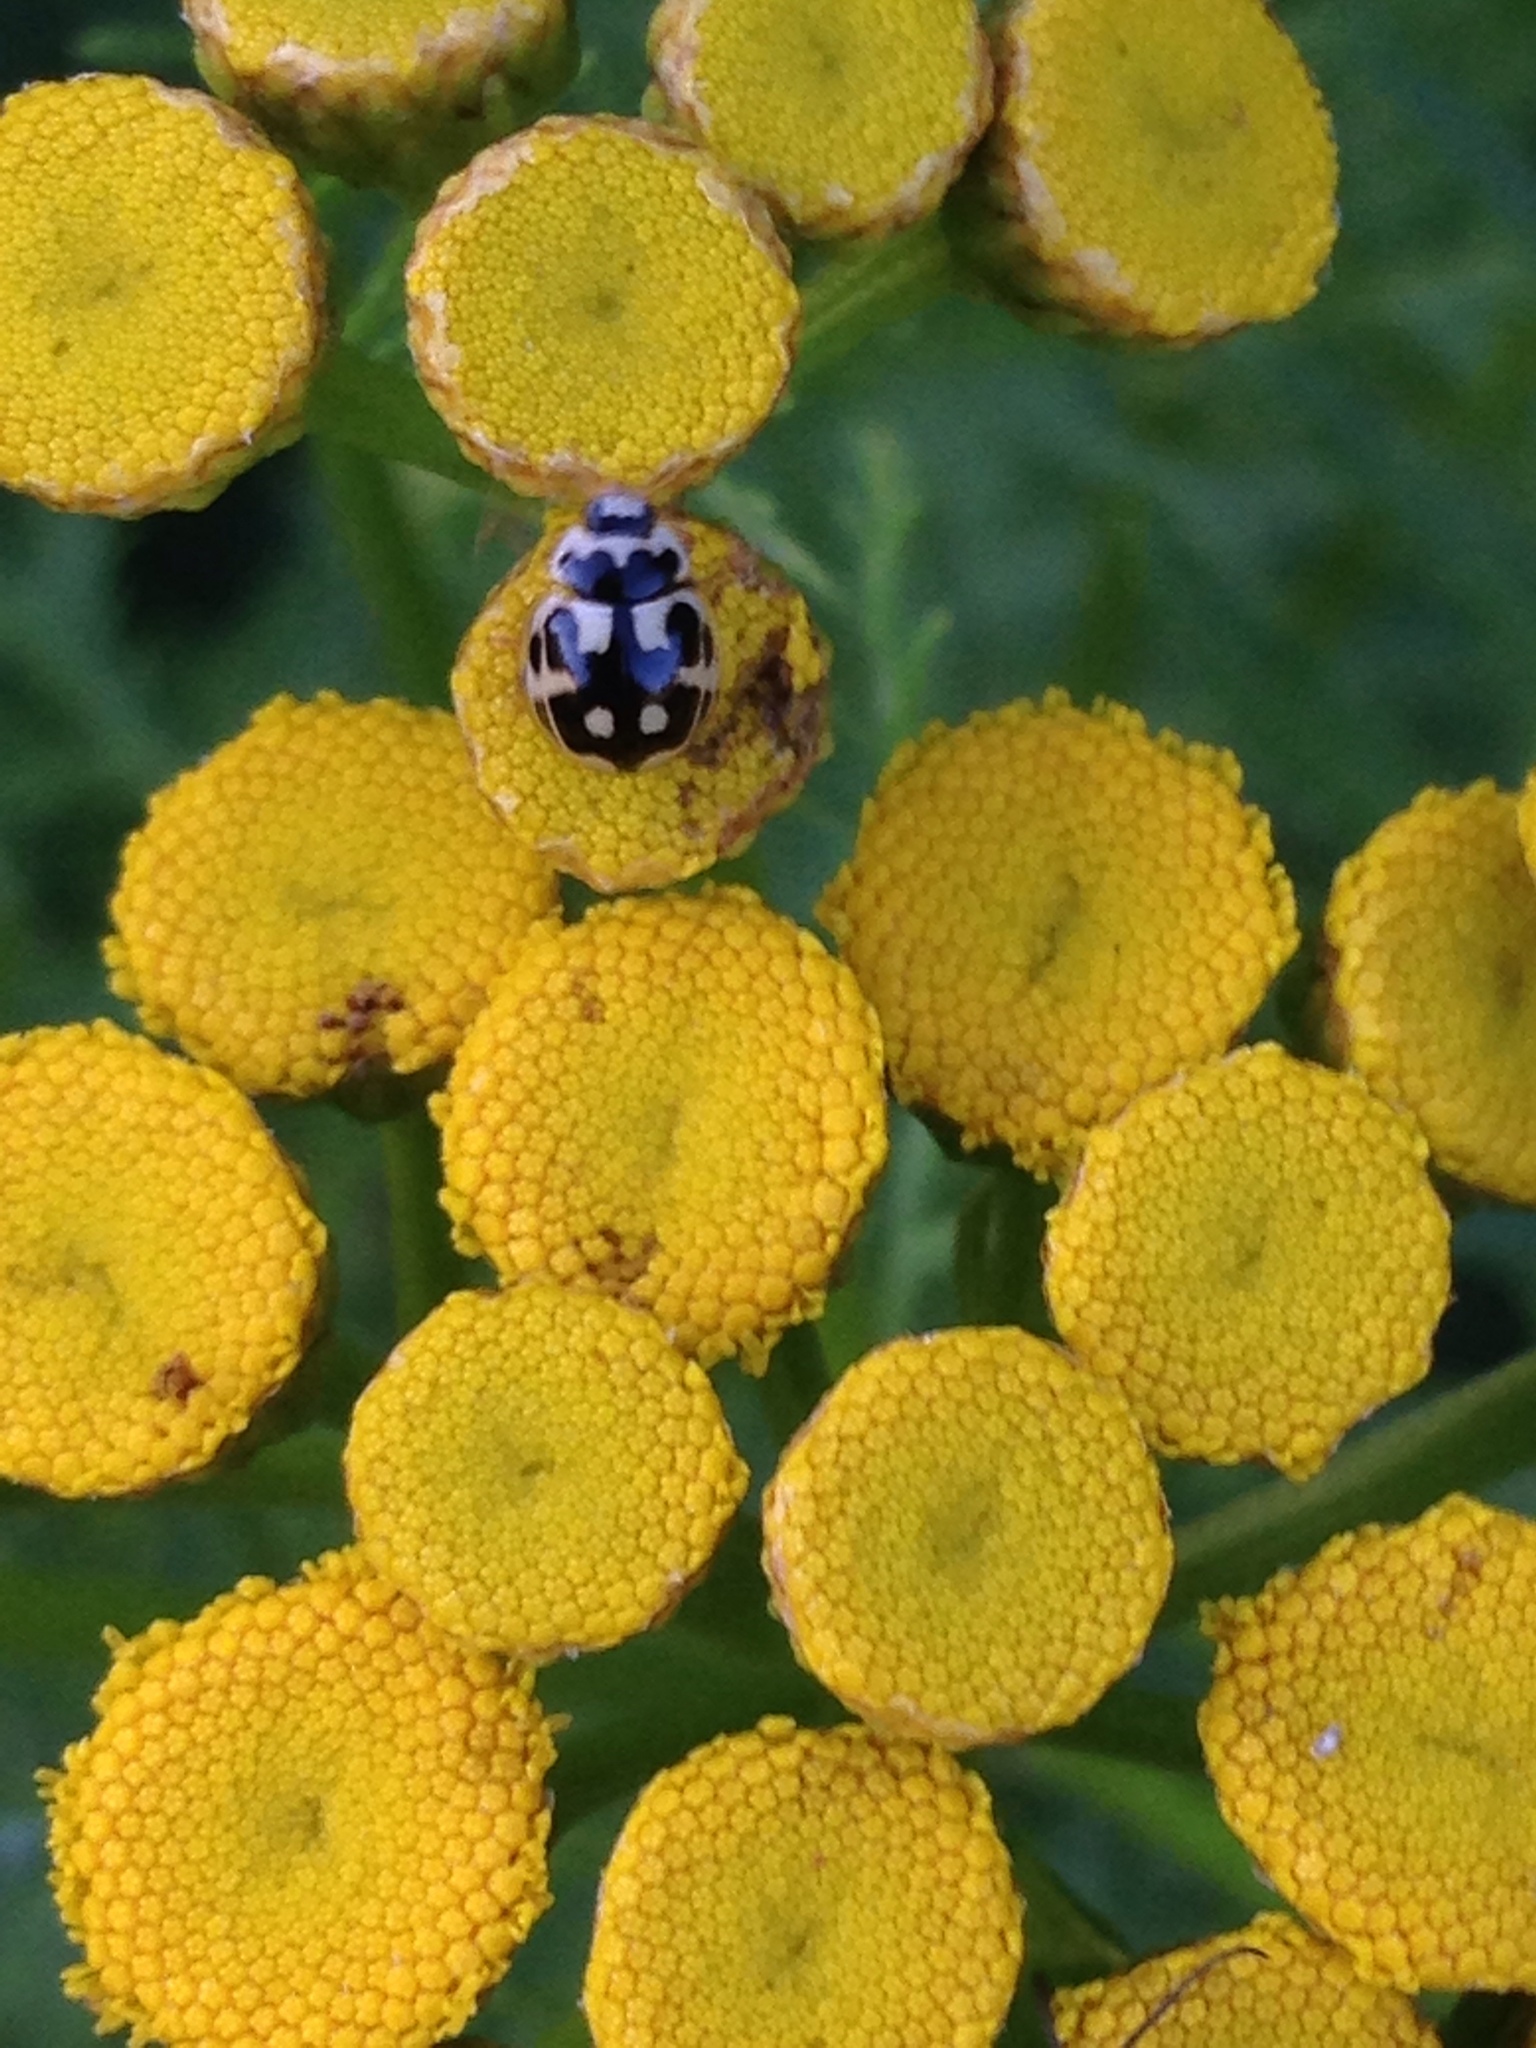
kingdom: Animalia
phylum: Arthropoda
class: Insecta
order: Coleoptera
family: Coccinellidae
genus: Propylaea
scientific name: Propylaea quatuordecimpunctata
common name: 14-spotted ladybird beetle
